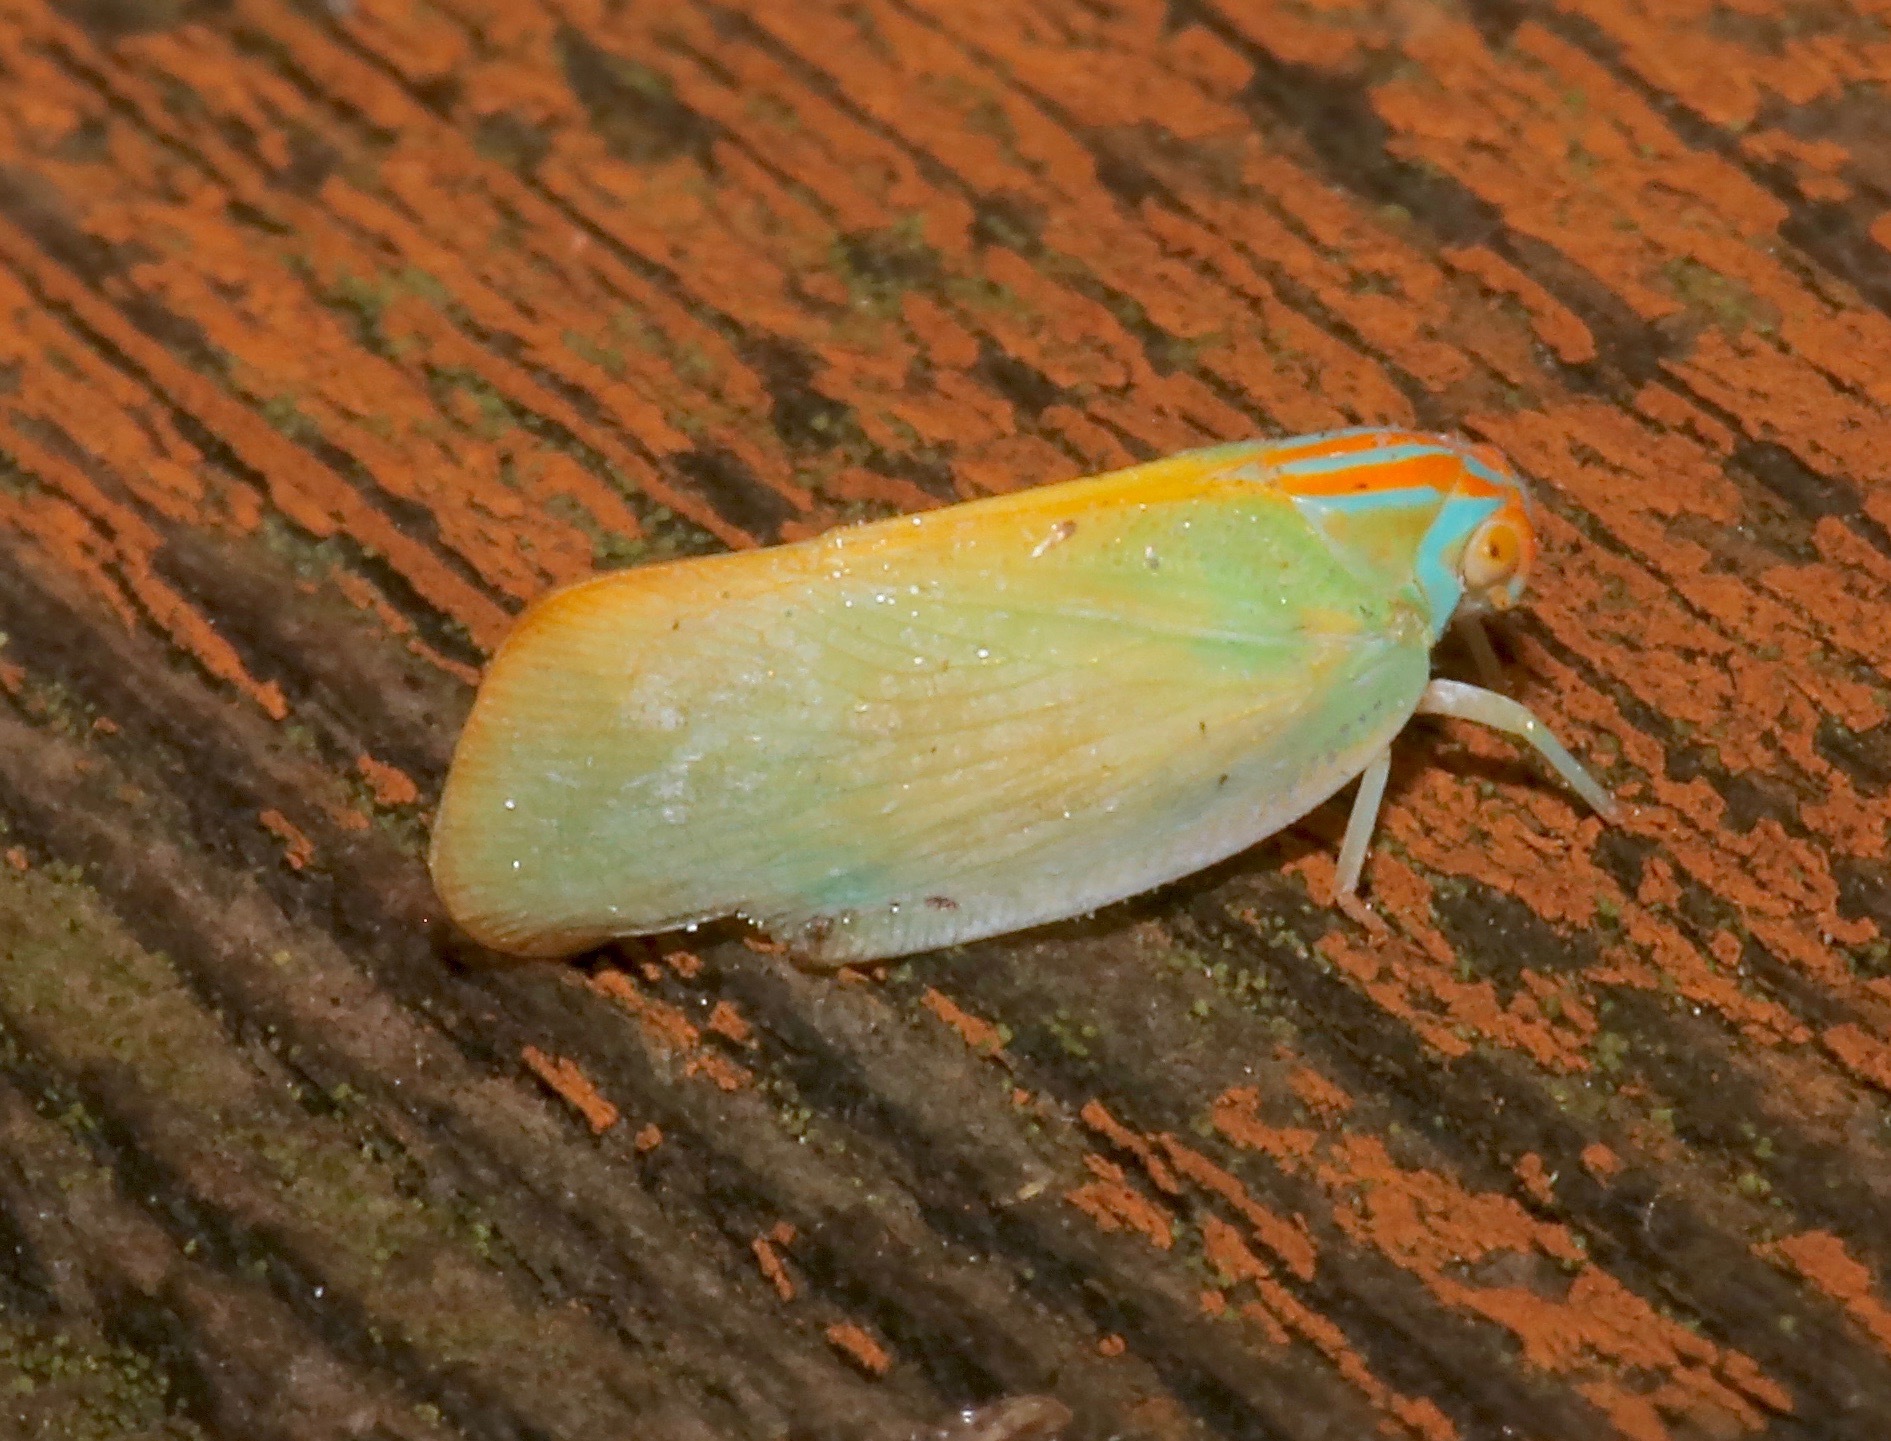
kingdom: Animalia
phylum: Arthropoda
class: Insecta
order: Hemiptera
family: Flatidae
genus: Ormenaria
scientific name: Ormenaria rufifascia
